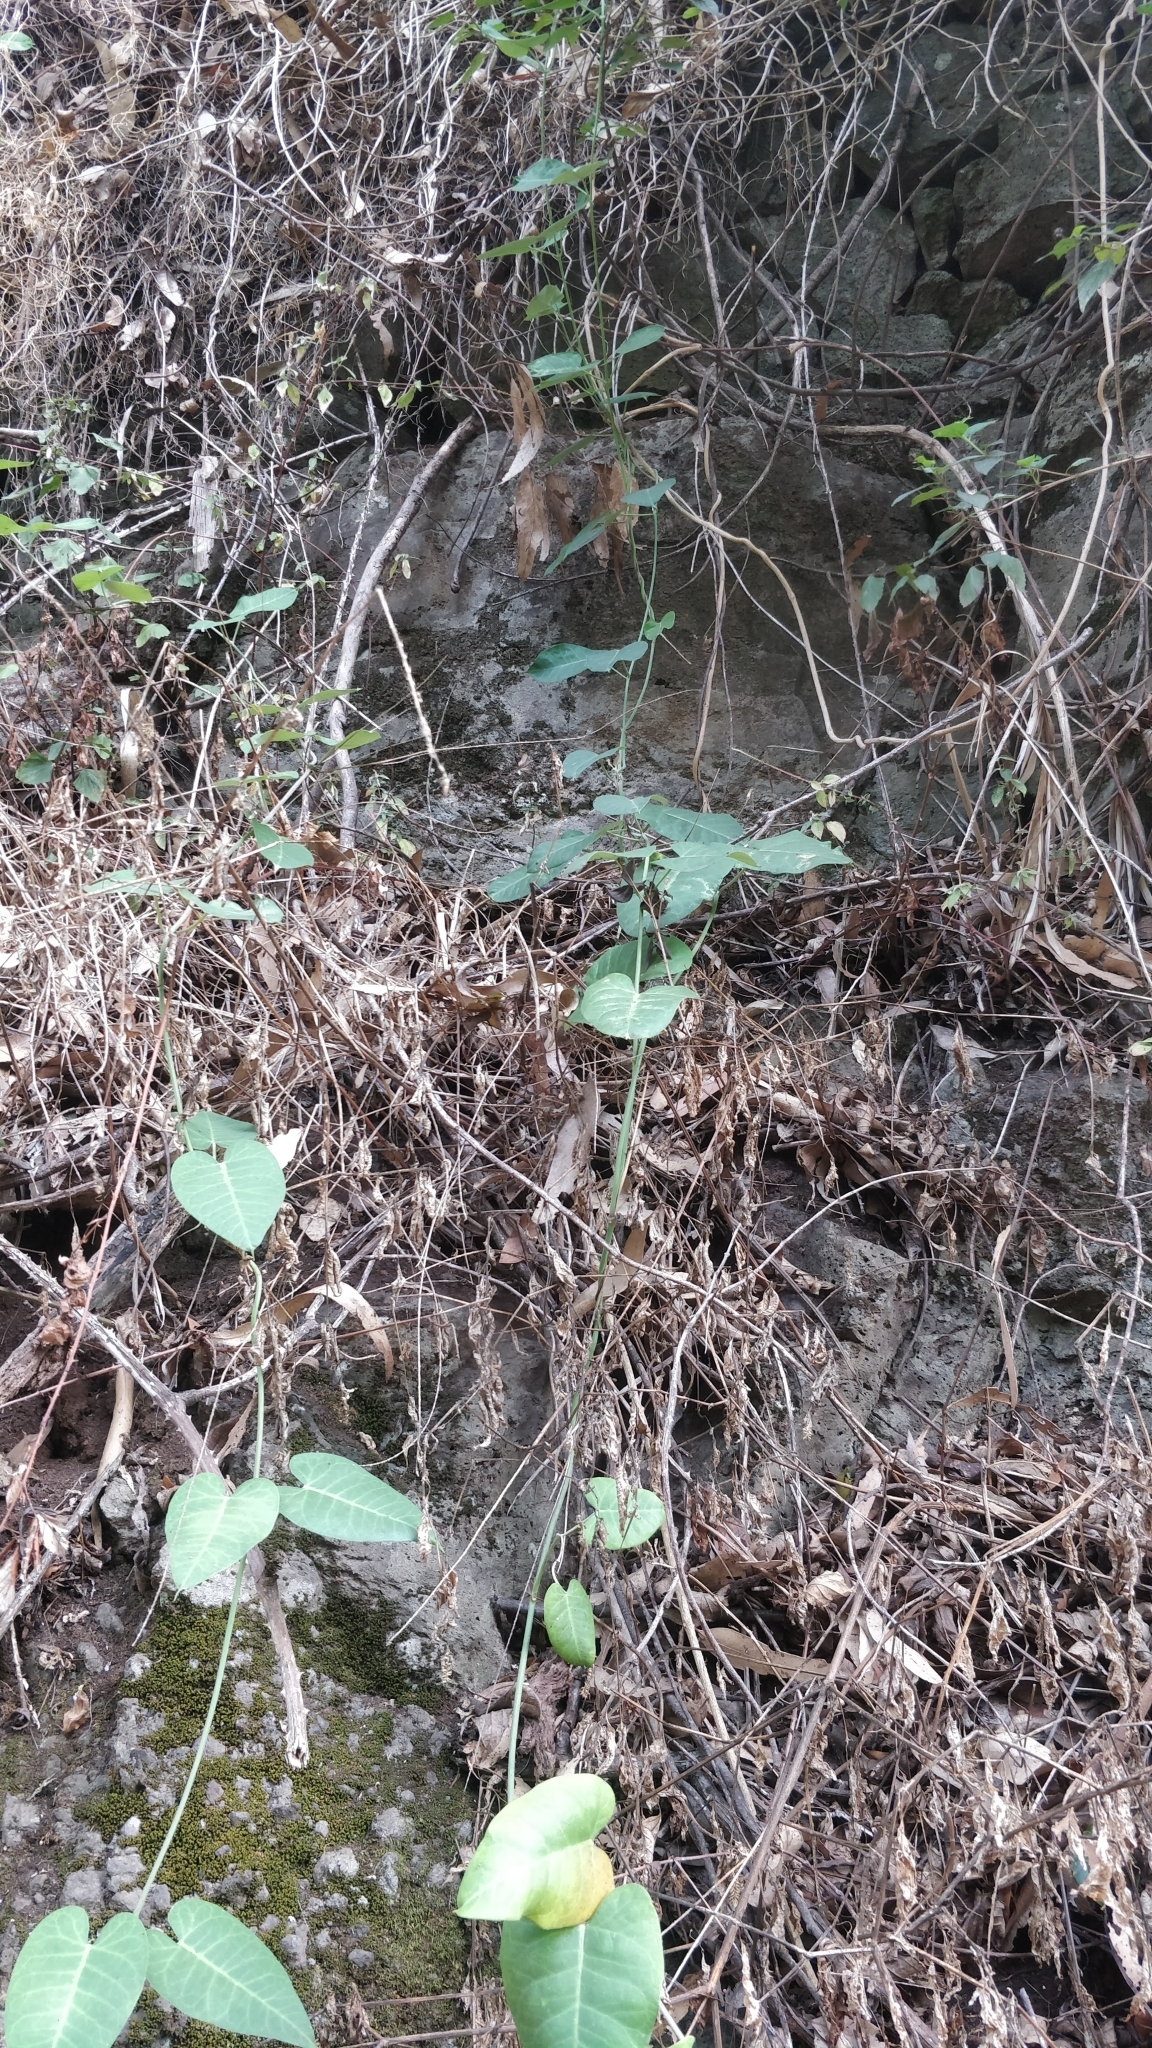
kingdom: Plantae
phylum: Tracheophyta
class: Magnoliopsida
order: Gentianales
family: Apocynaceae
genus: Araujia
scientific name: Araujia sericifera
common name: White bladderflower
